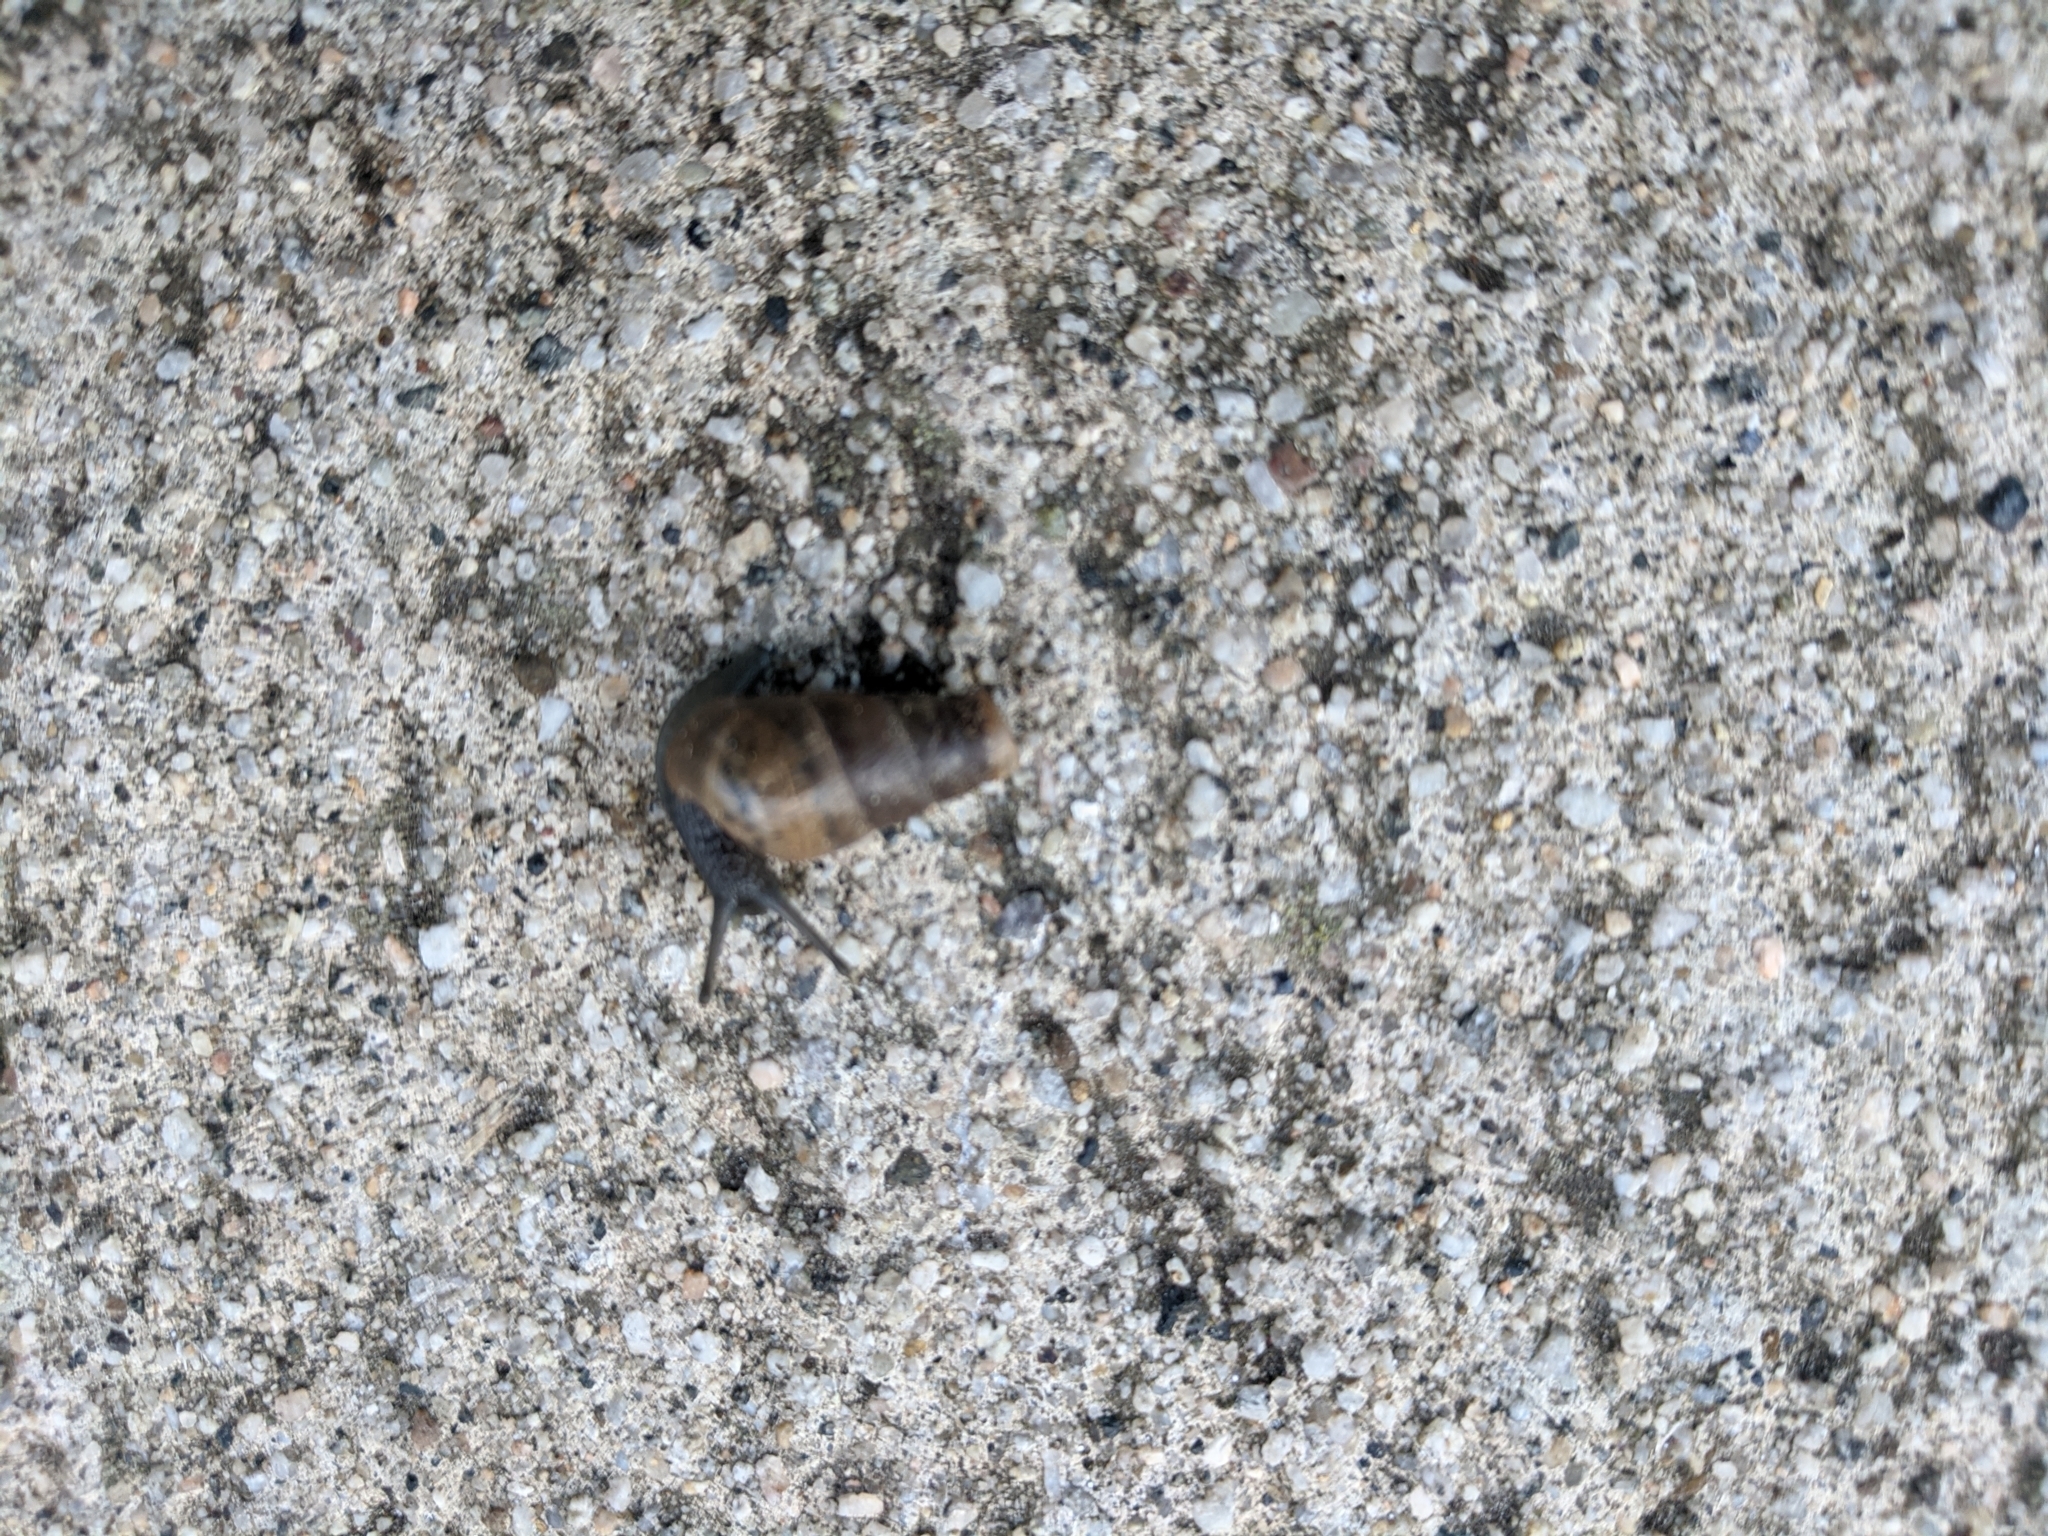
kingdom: Animalia
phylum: Mollusca
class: Gastropoda
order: Stylommatophora
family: Achatinidae
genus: Rumina
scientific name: Rumina decollata
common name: Decollate snail
